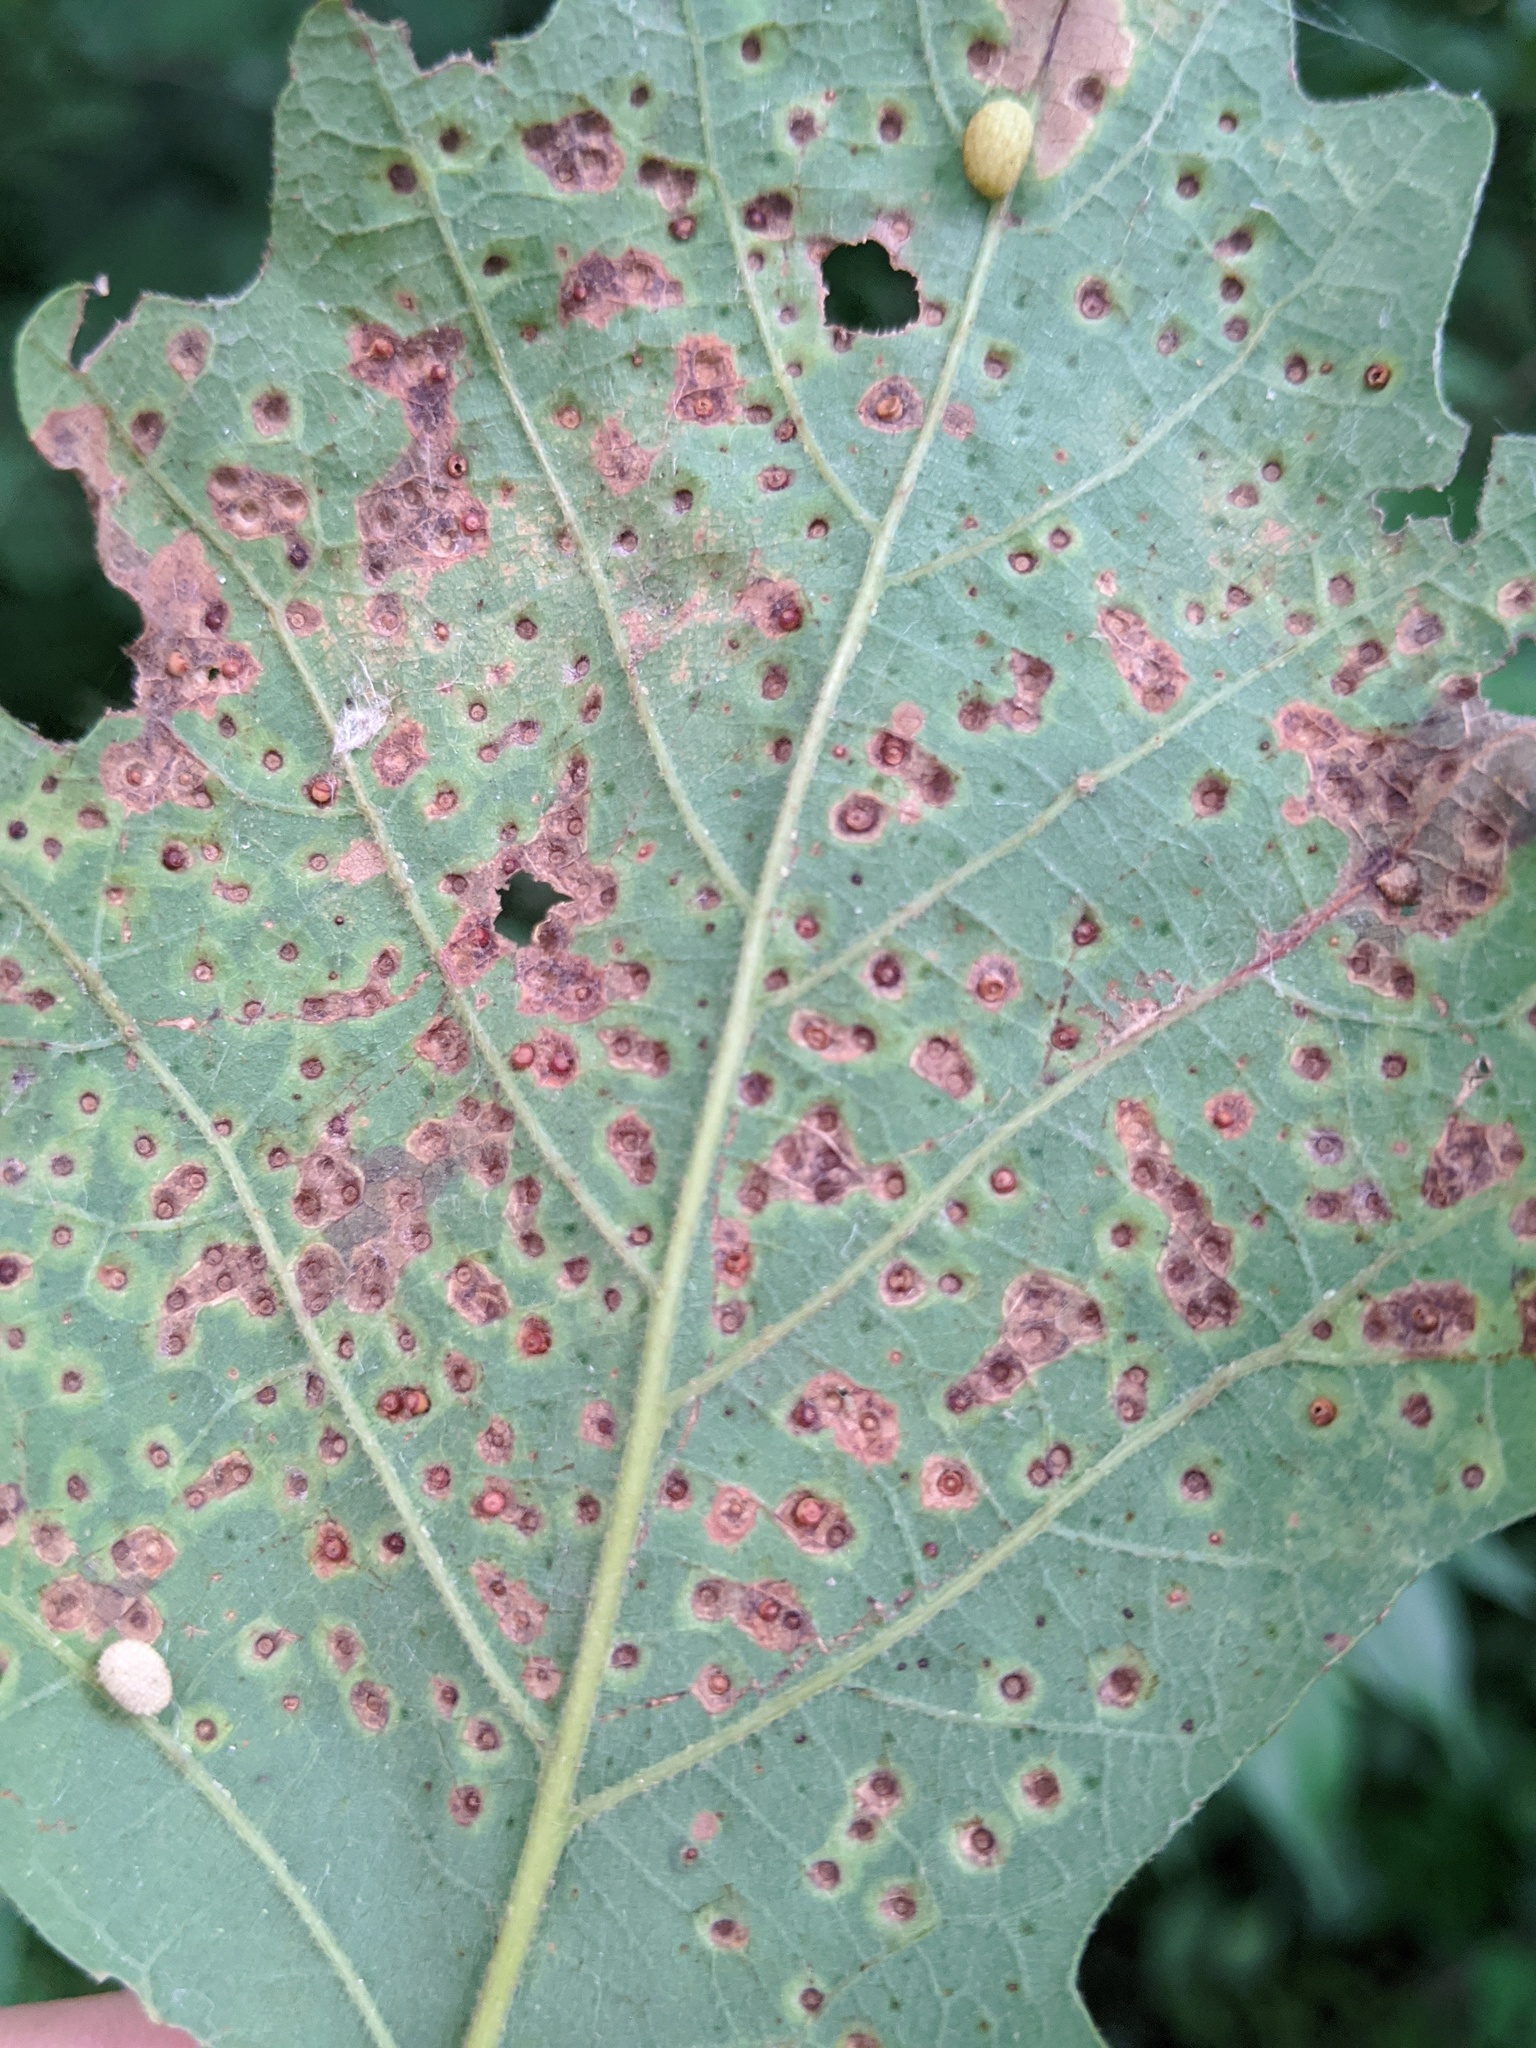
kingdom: Animalia
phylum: Arthropoda
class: Insecta
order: Hymenoptera
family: Cynipidae
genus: Neuroterus
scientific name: Neuroterus saltarius
